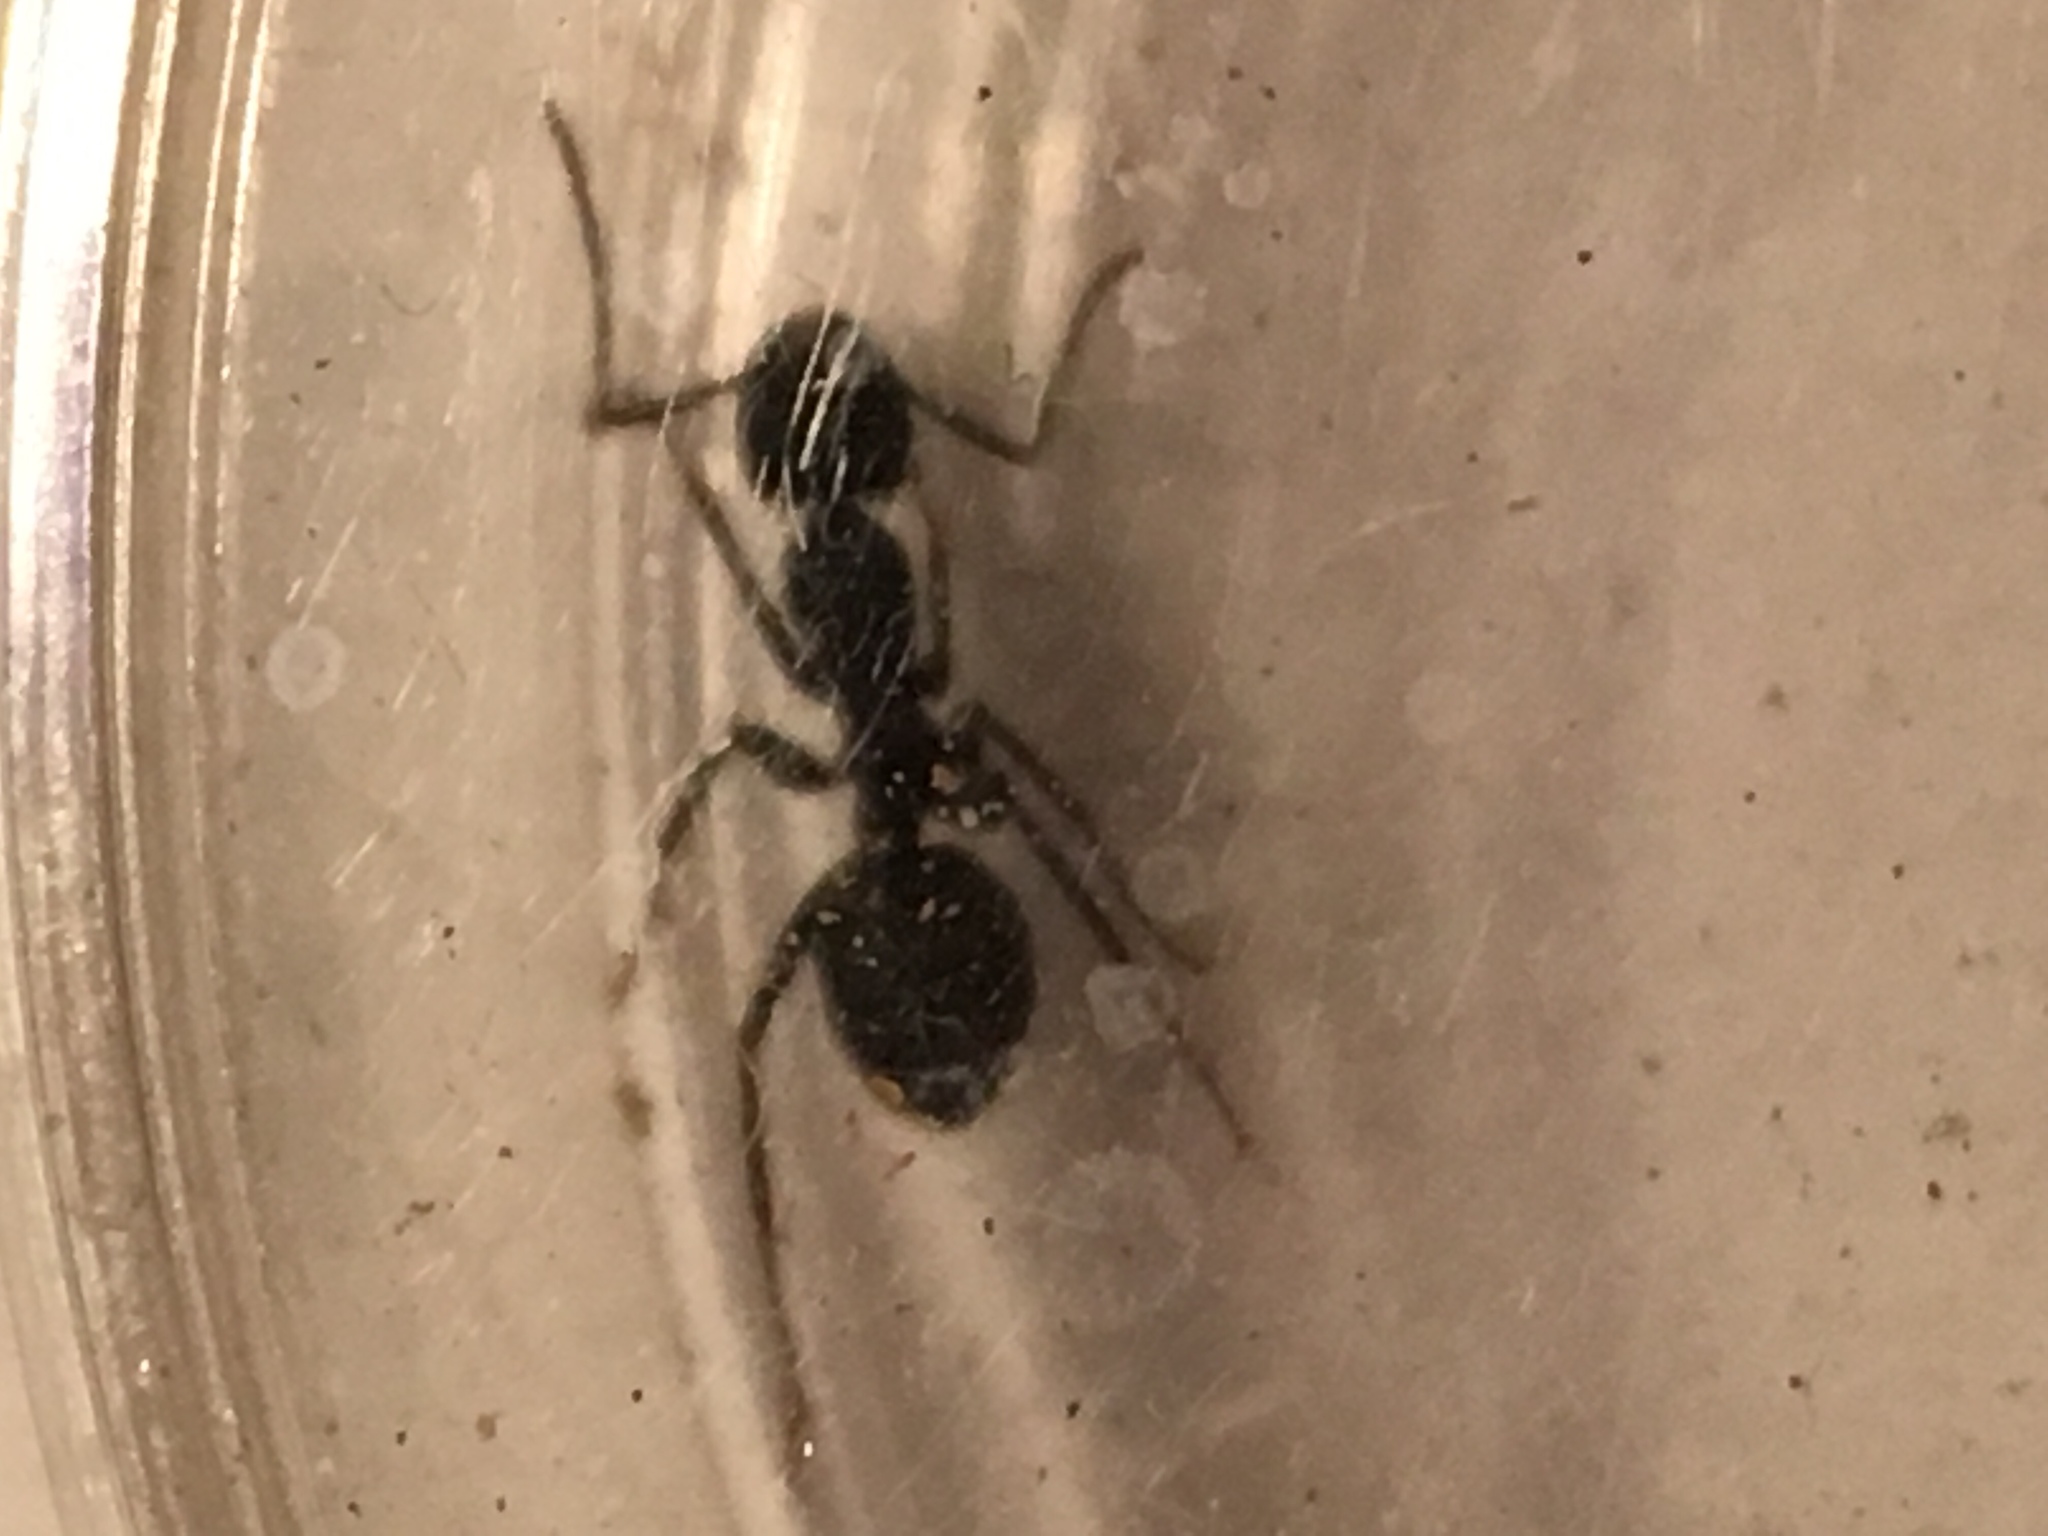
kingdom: Animalia
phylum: Arthropoda
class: Insecta
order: Hymenoptera
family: Formicidae
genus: Camponotus
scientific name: Camponotus pennsylvanicus
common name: Black carpenter ant
